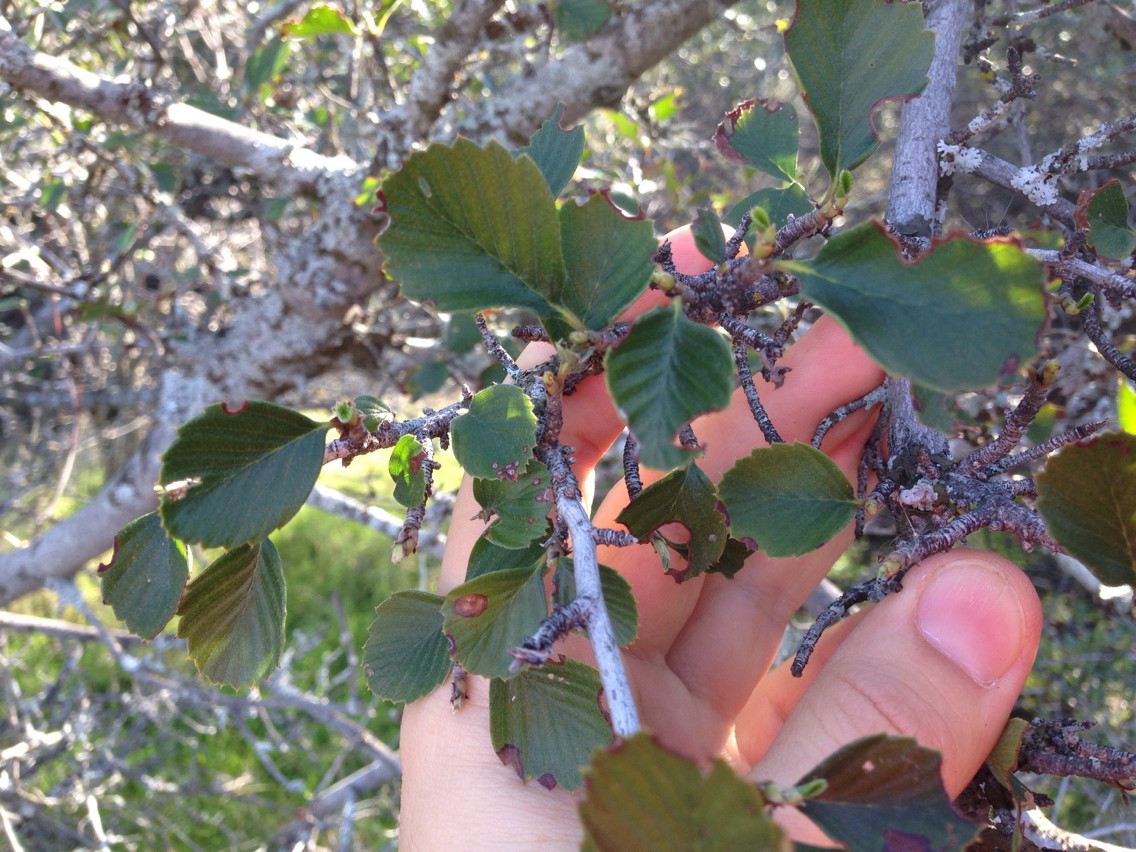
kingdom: Plantae
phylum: Tracheophyta
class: Magnoliopsida
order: Rosales
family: Rosaceae
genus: Cercocarpus
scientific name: Cercocarpus betuloides
